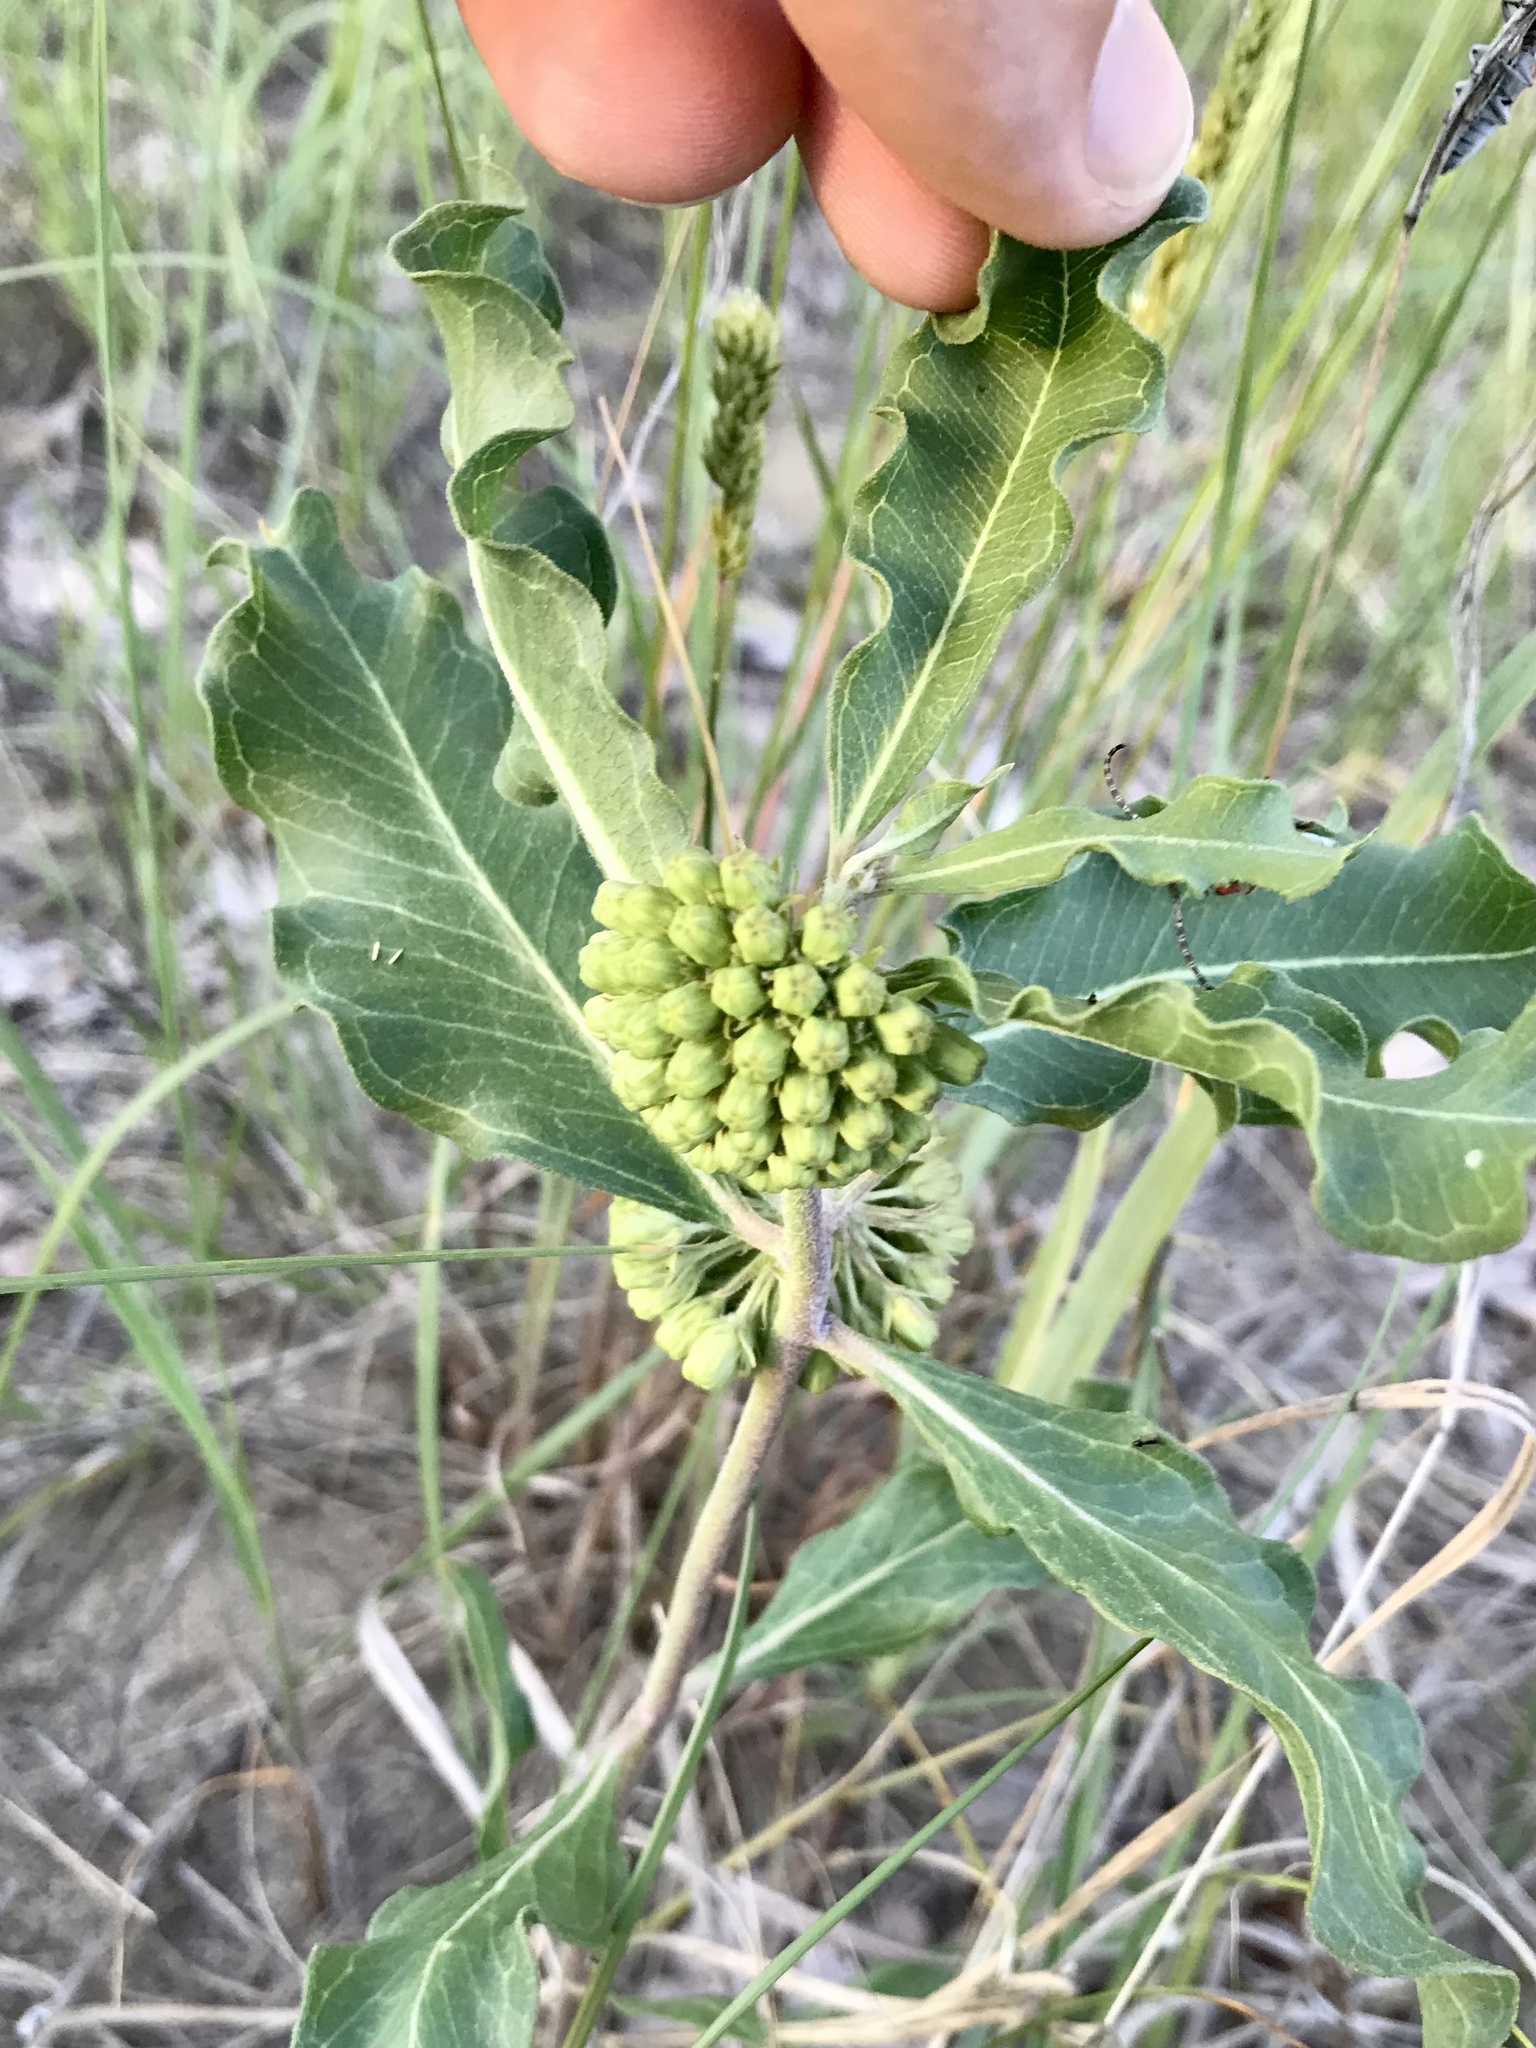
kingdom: Plantae
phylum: Tracheophyta
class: Magnoliopsida
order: Gentianales
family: Apocynaceae
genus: Asclepias
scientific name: Asclepias viridiflora
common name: Green comet milkweed
